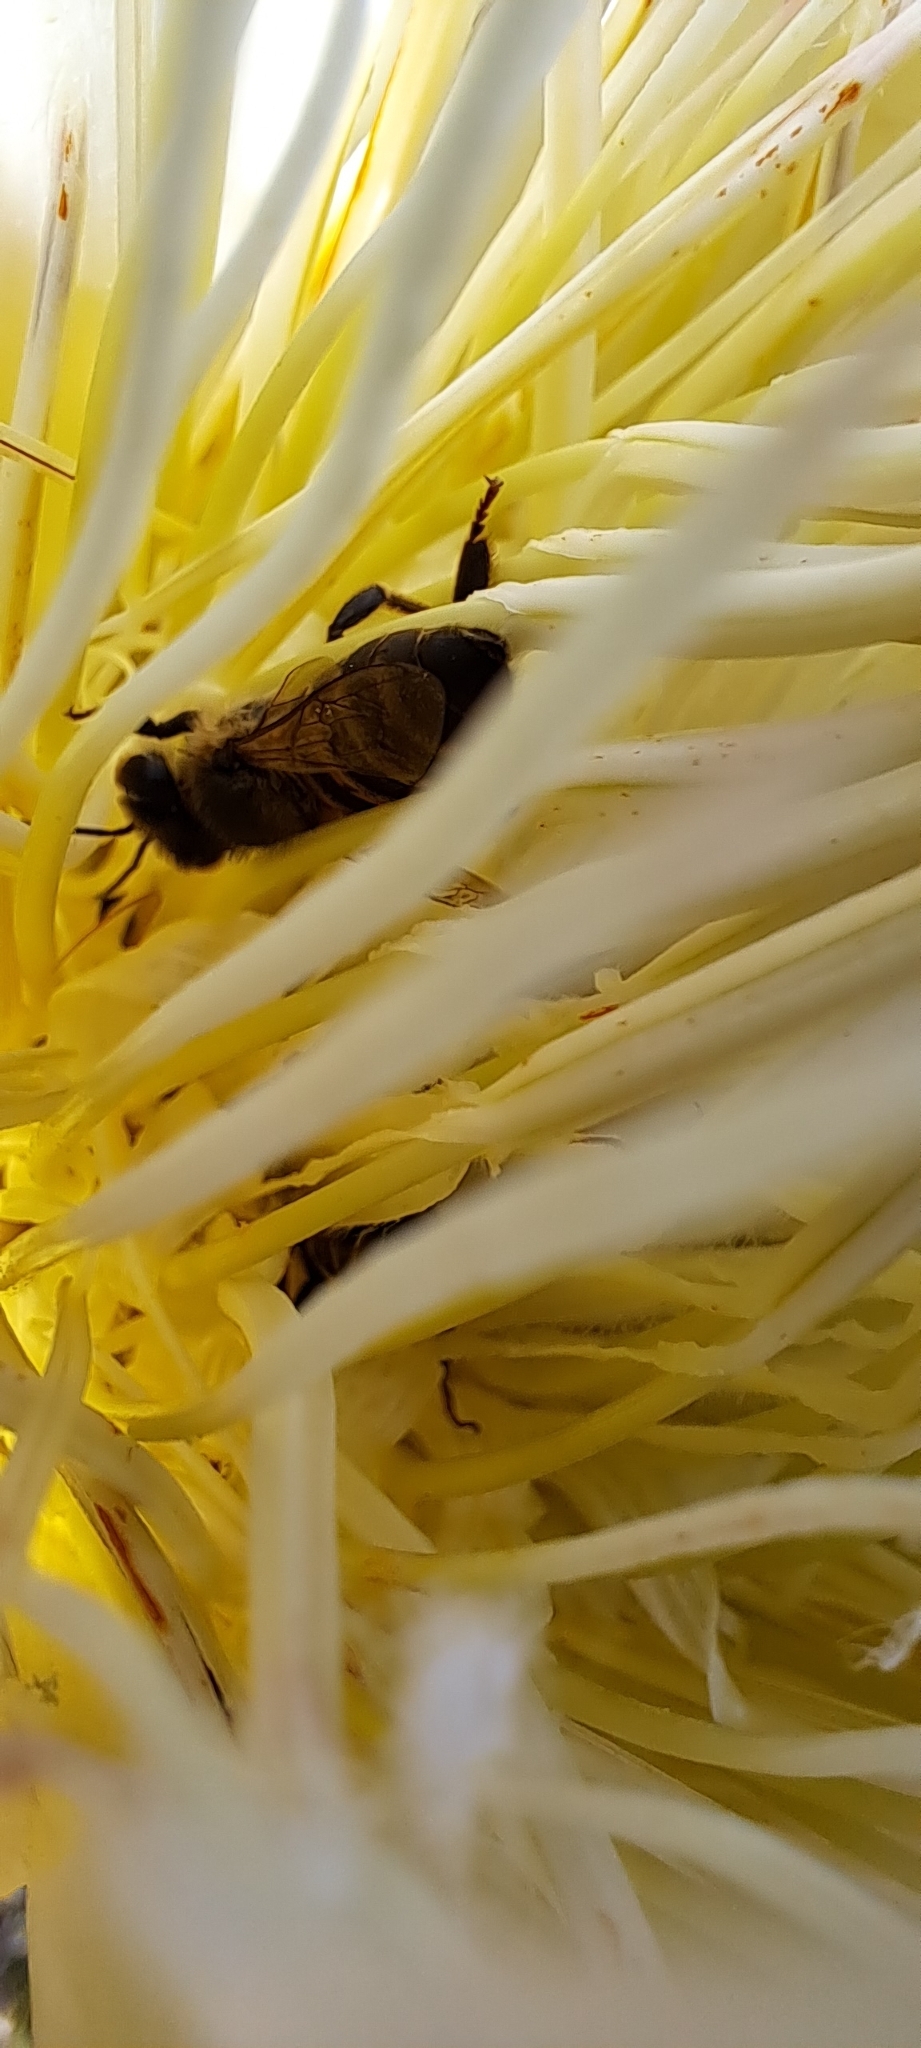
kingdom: Animalia
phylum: Arthropoda
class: Insecta
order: Hymenoptera
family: Apidae
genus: Apis
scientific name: Apis mellifera
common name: Honey bee
